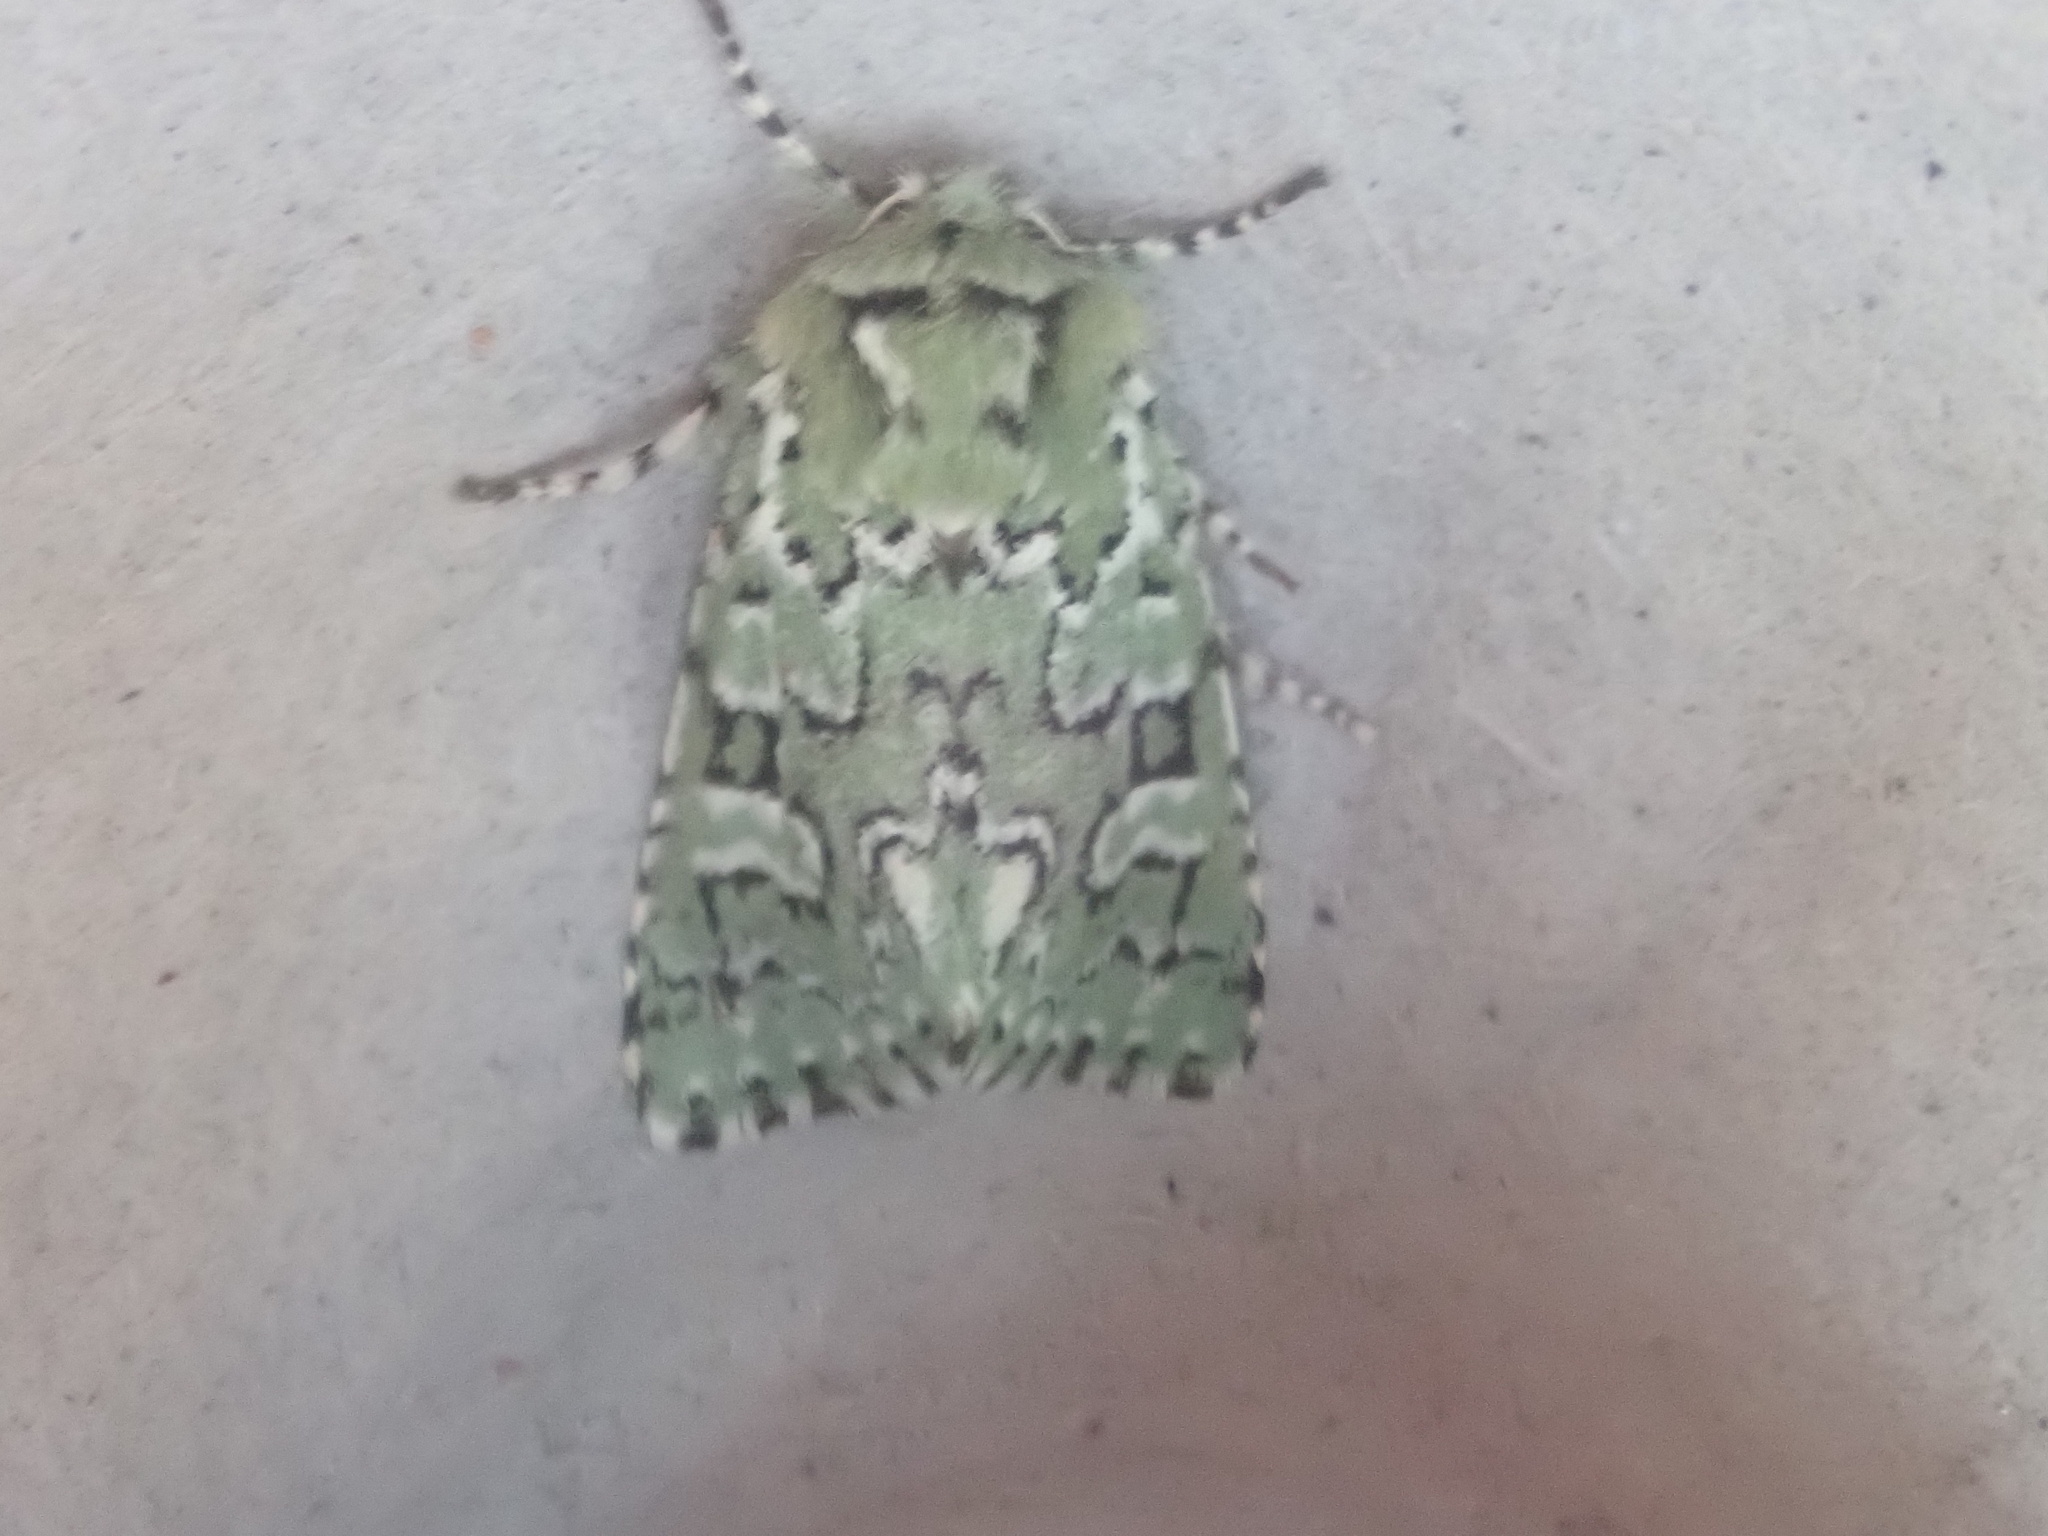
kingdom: Animalia
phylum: Arthropoda
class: Insecta
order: Lepidoptera
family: Noctuidae
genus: Feralia
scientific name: Feralia jocosa
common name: Joker
